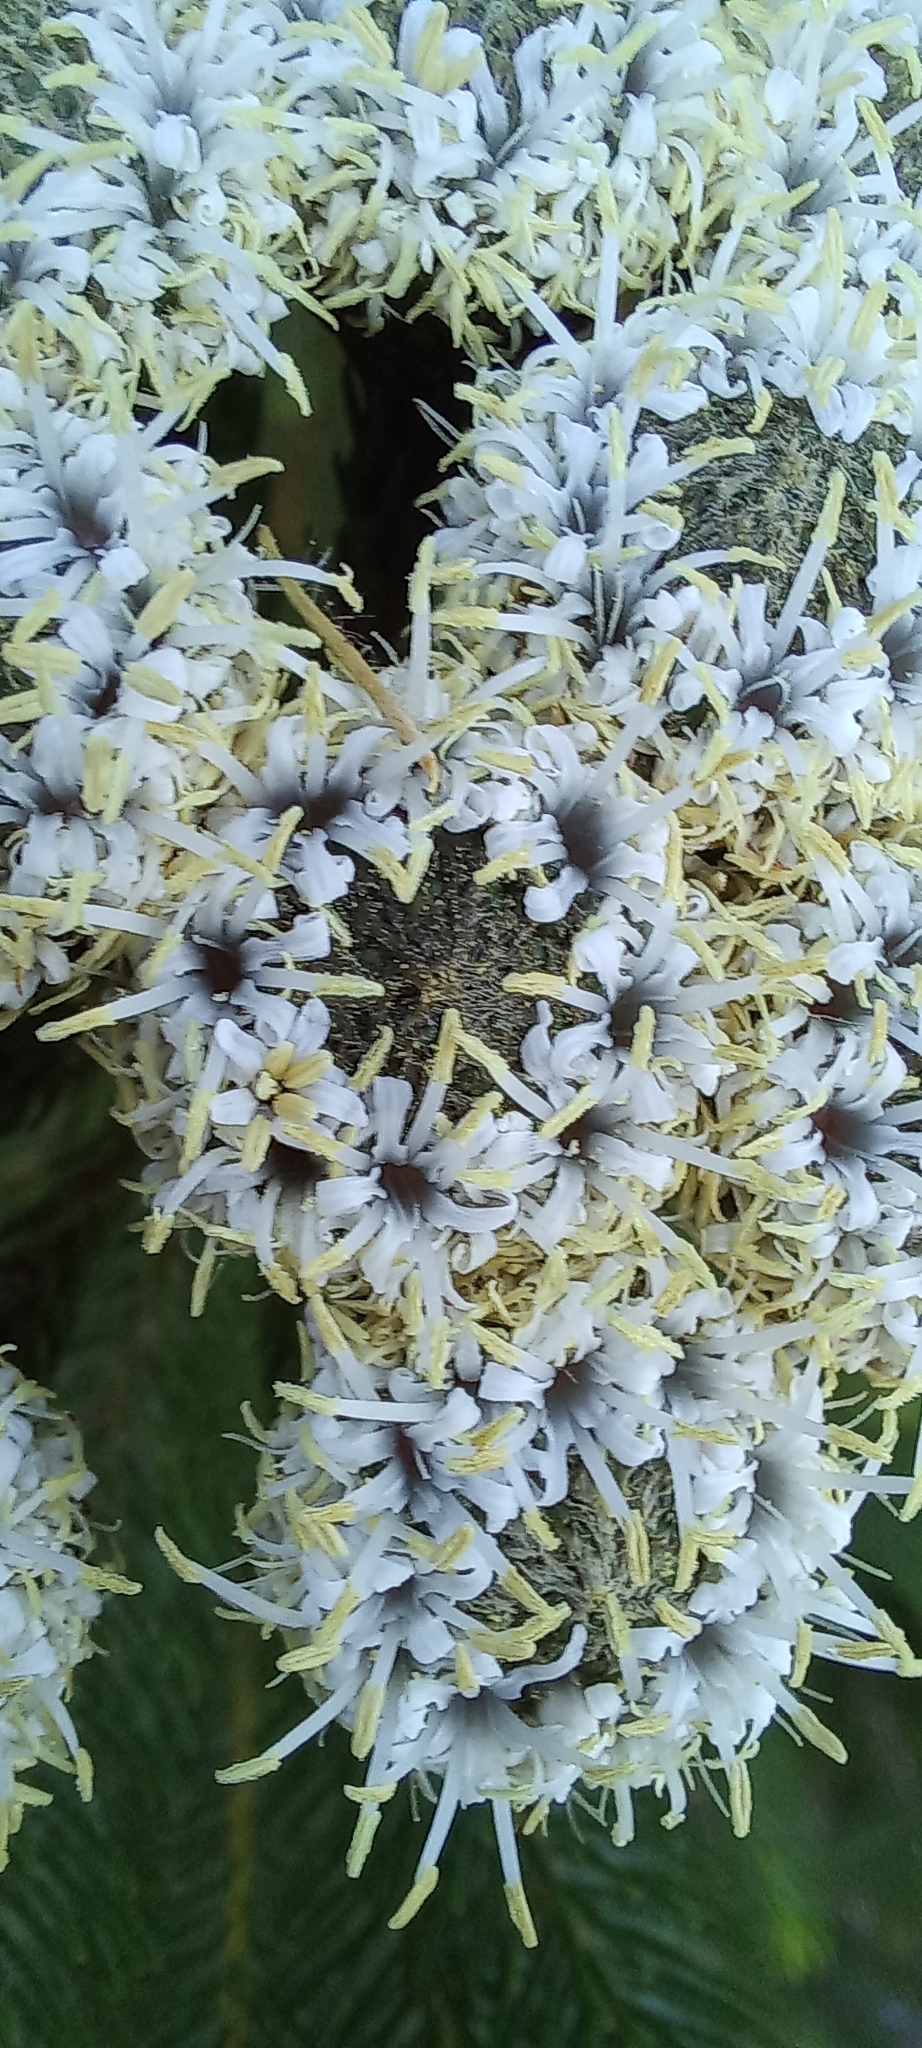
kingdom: Plantae
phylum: Tracheophyta
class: Magnoliopsida
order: Bruniales
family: Bruniaceae
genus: Berzelia
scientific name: Berzelia albiflora
